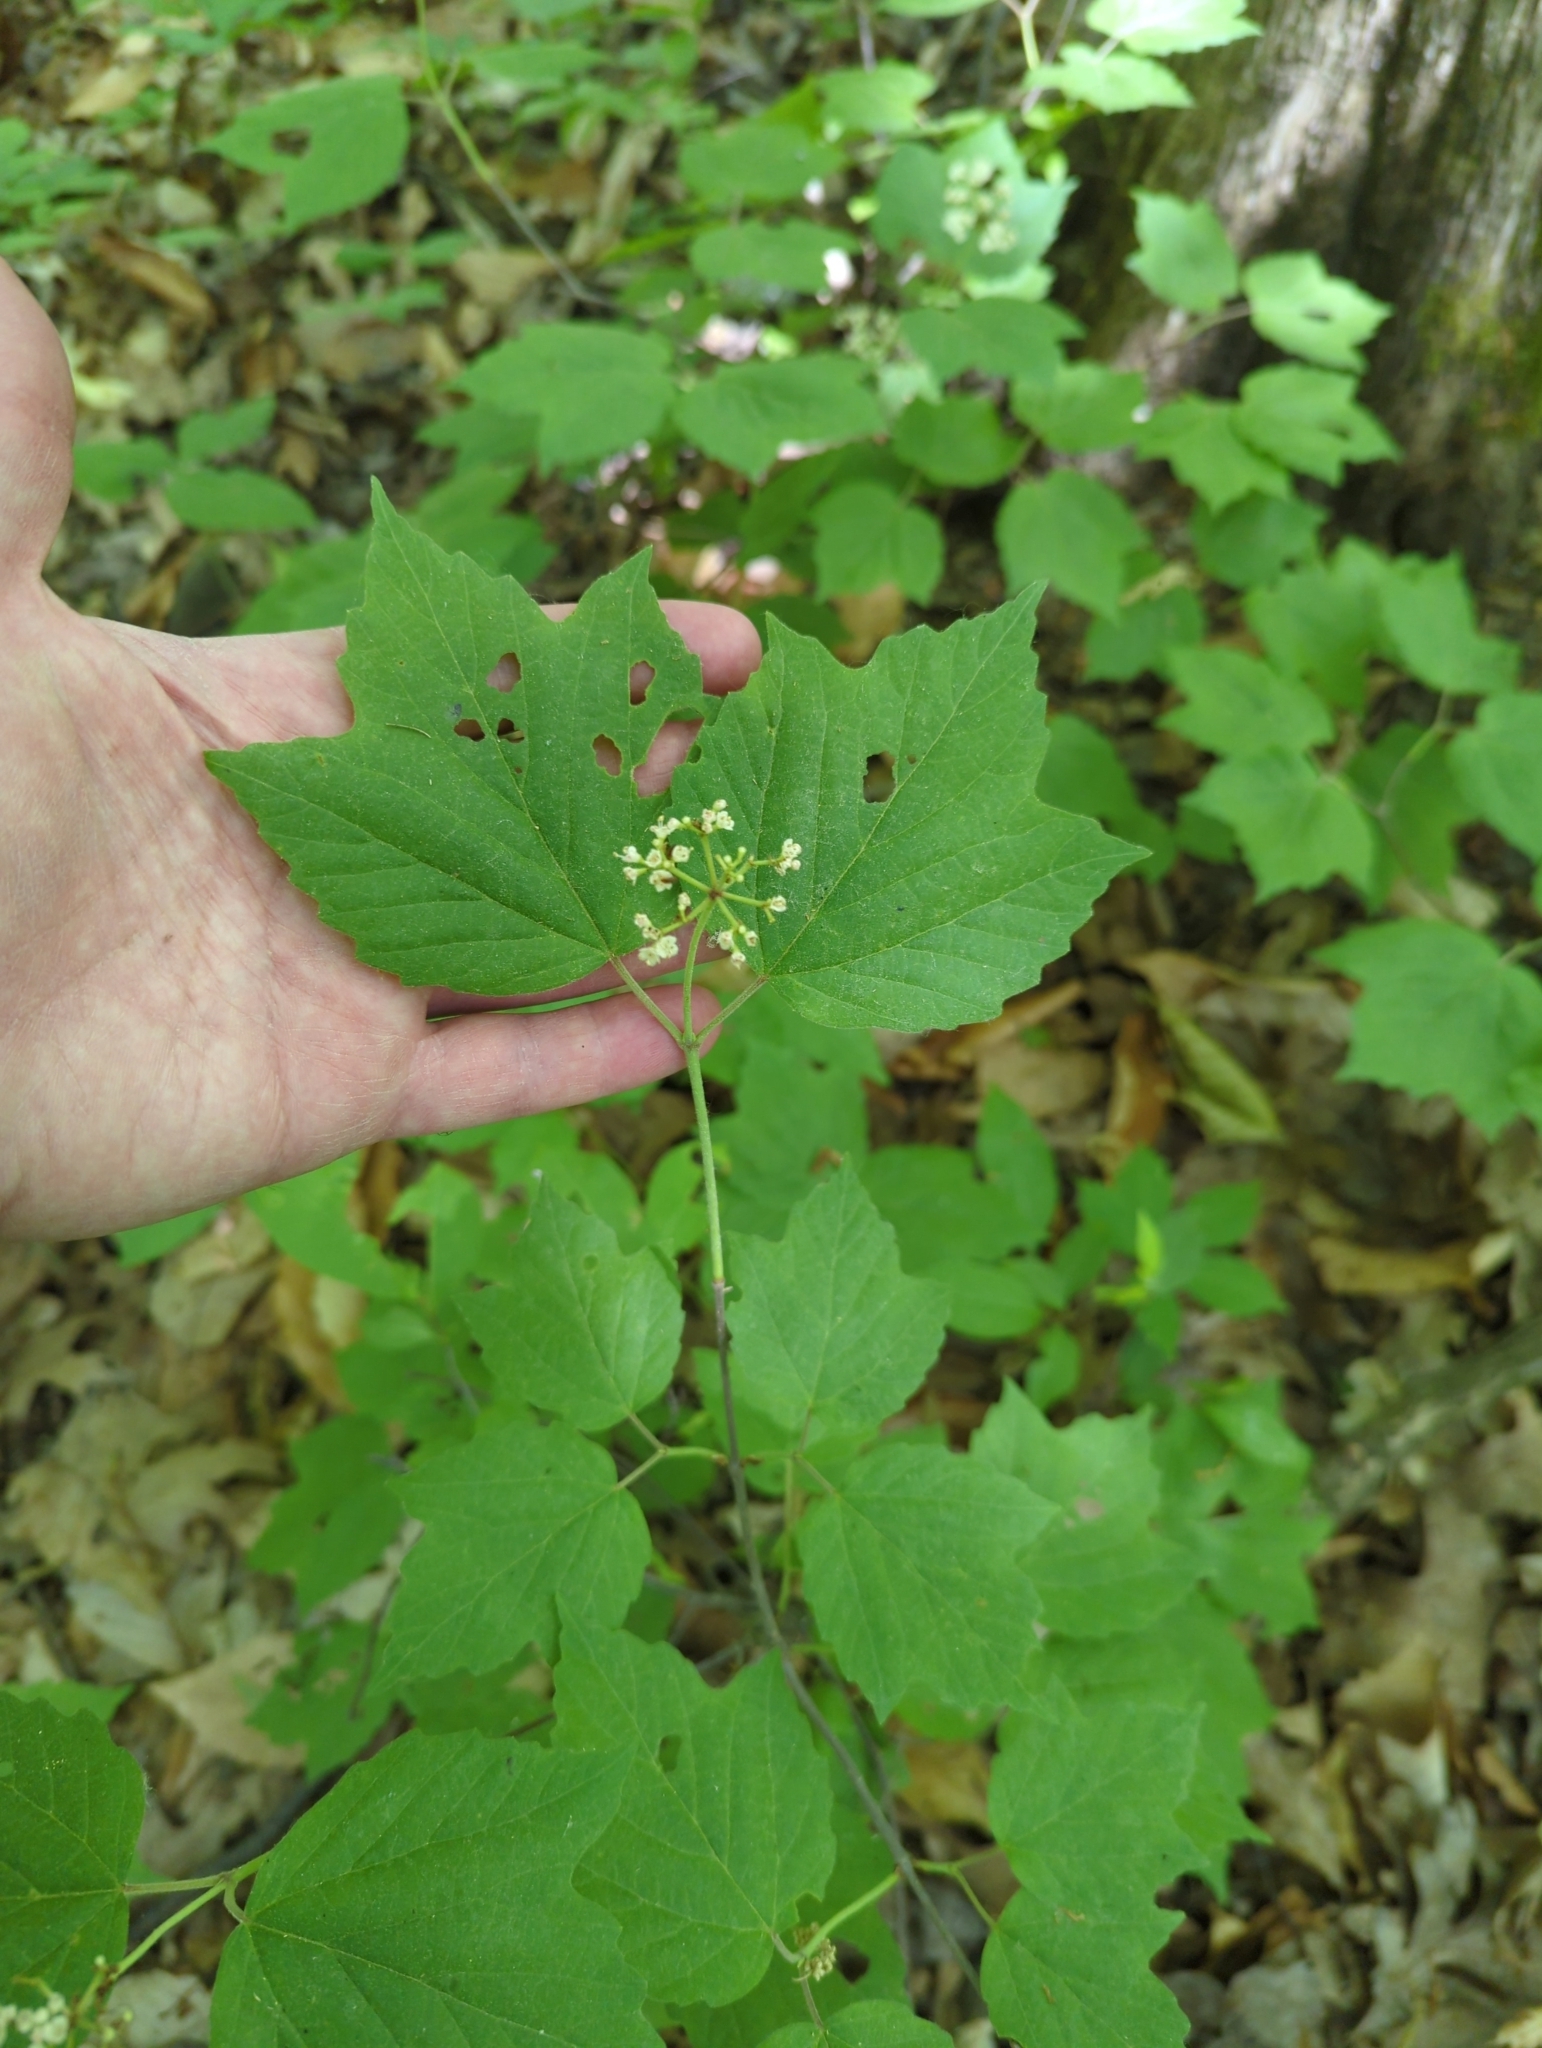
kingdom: Plantae
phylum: Tracheophyta
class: Magnoliopsida
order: Dipsacales
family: Viburnaceae
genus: Viburnum
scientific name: Viburnum acerifolium
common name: Dockmackie
